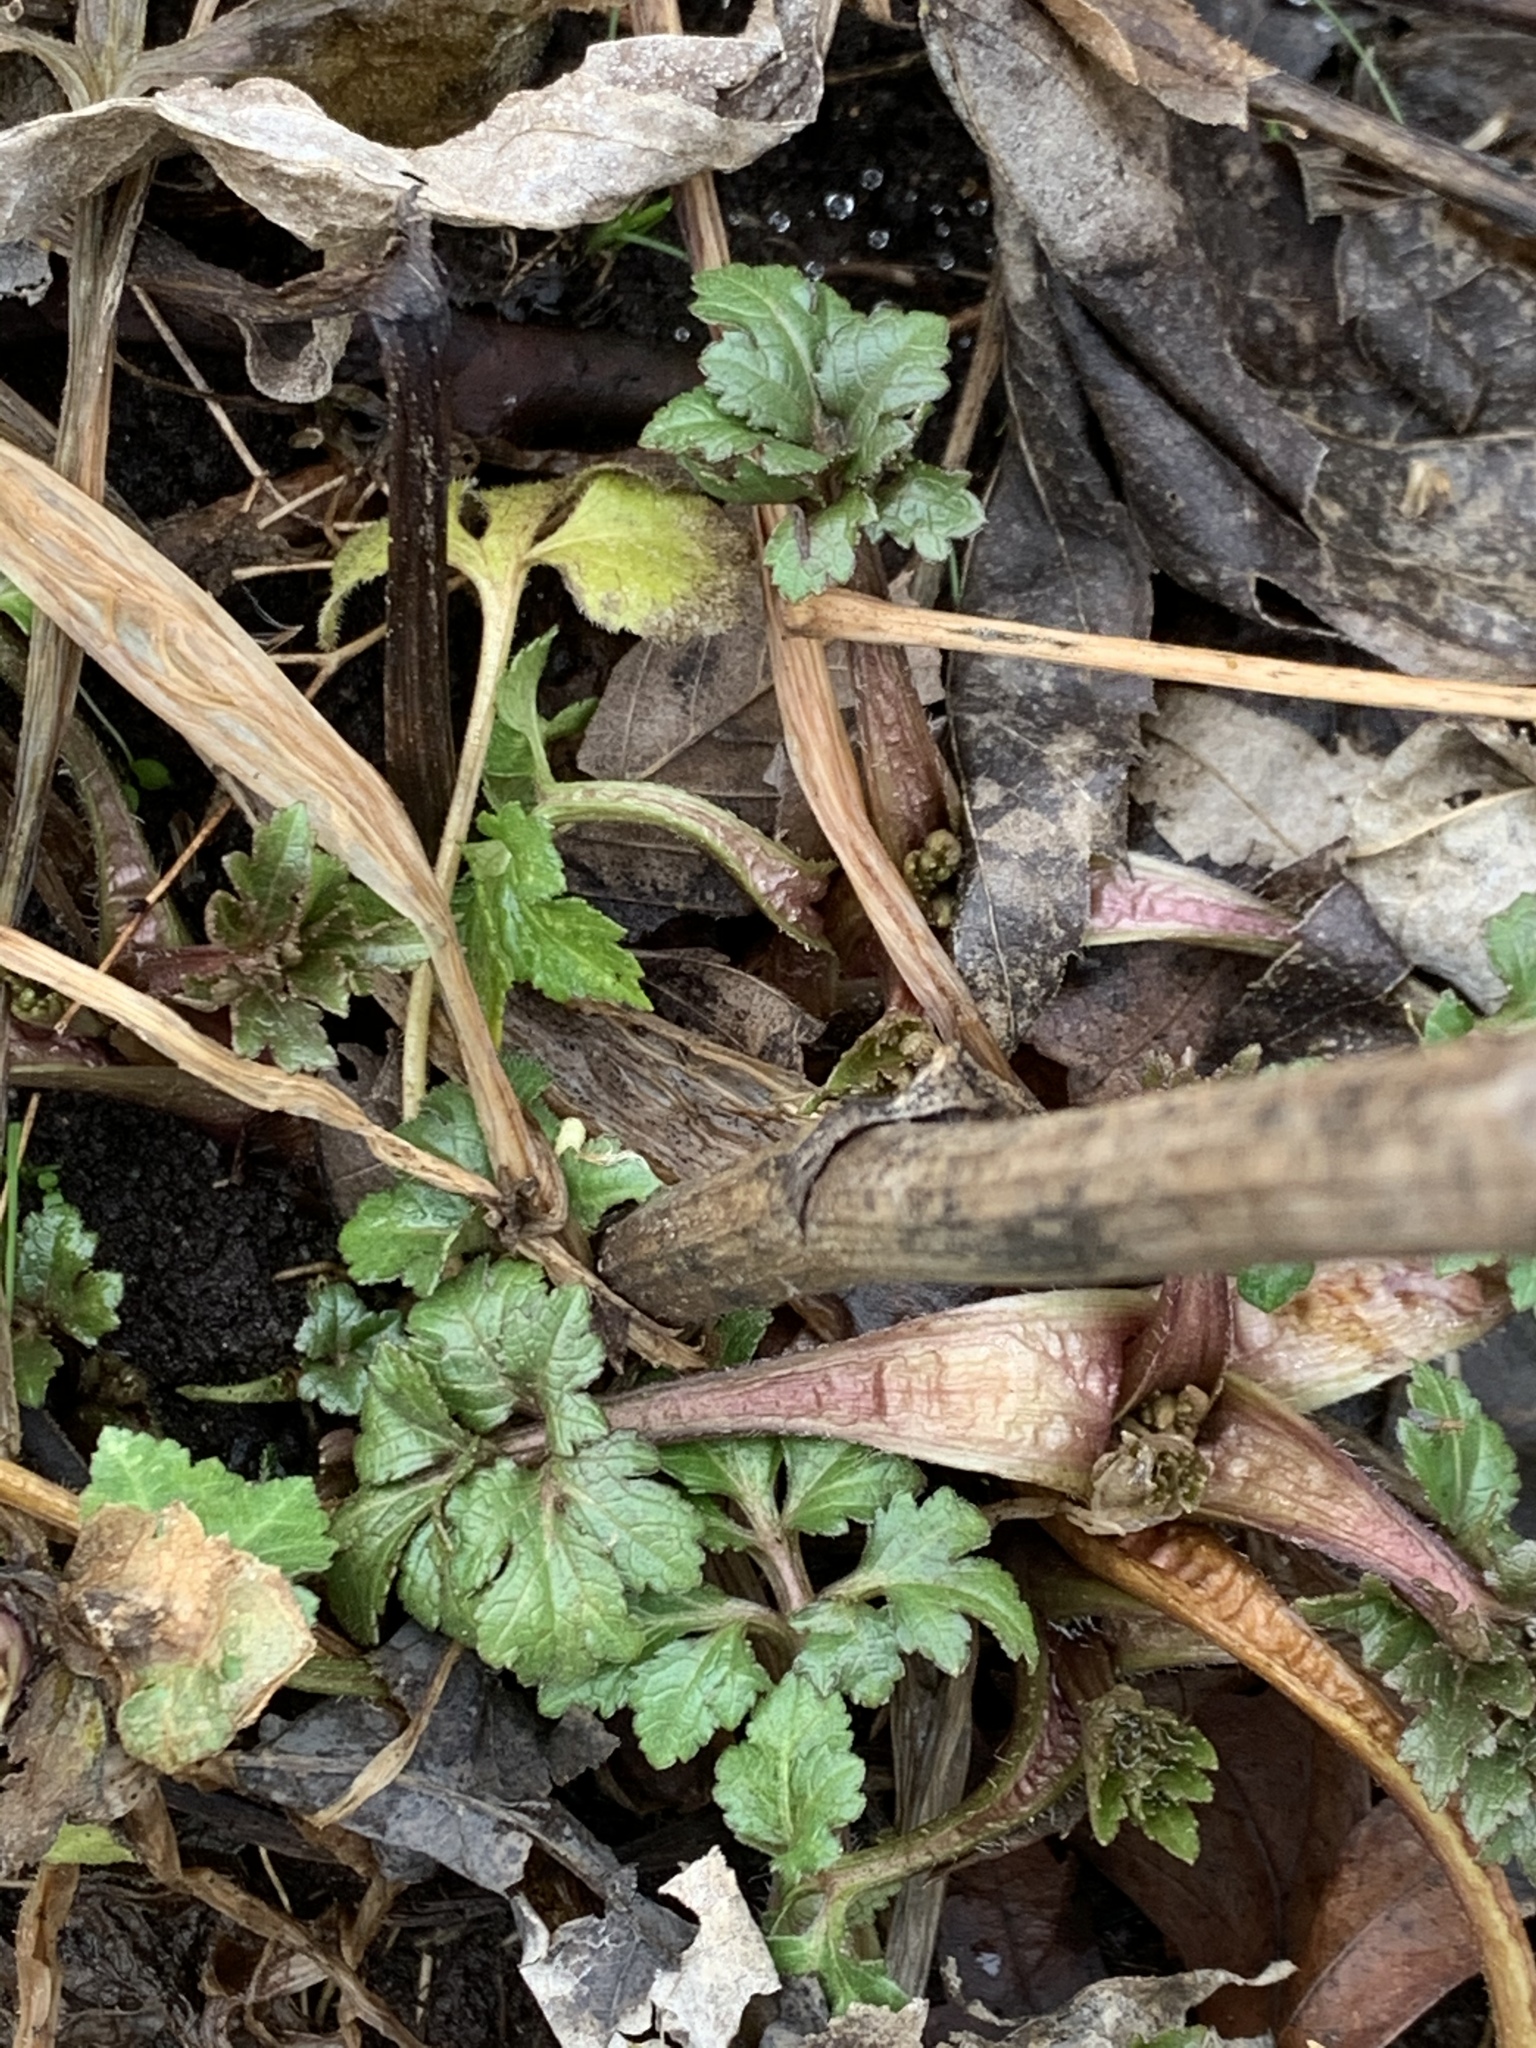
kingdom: Plantae
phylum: Tracheophyta
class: Magnoliopsida
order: Asterales
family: Asteraceae
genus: Rudbeckia
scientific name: Rudbeckia laciniata
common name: Coneflower
